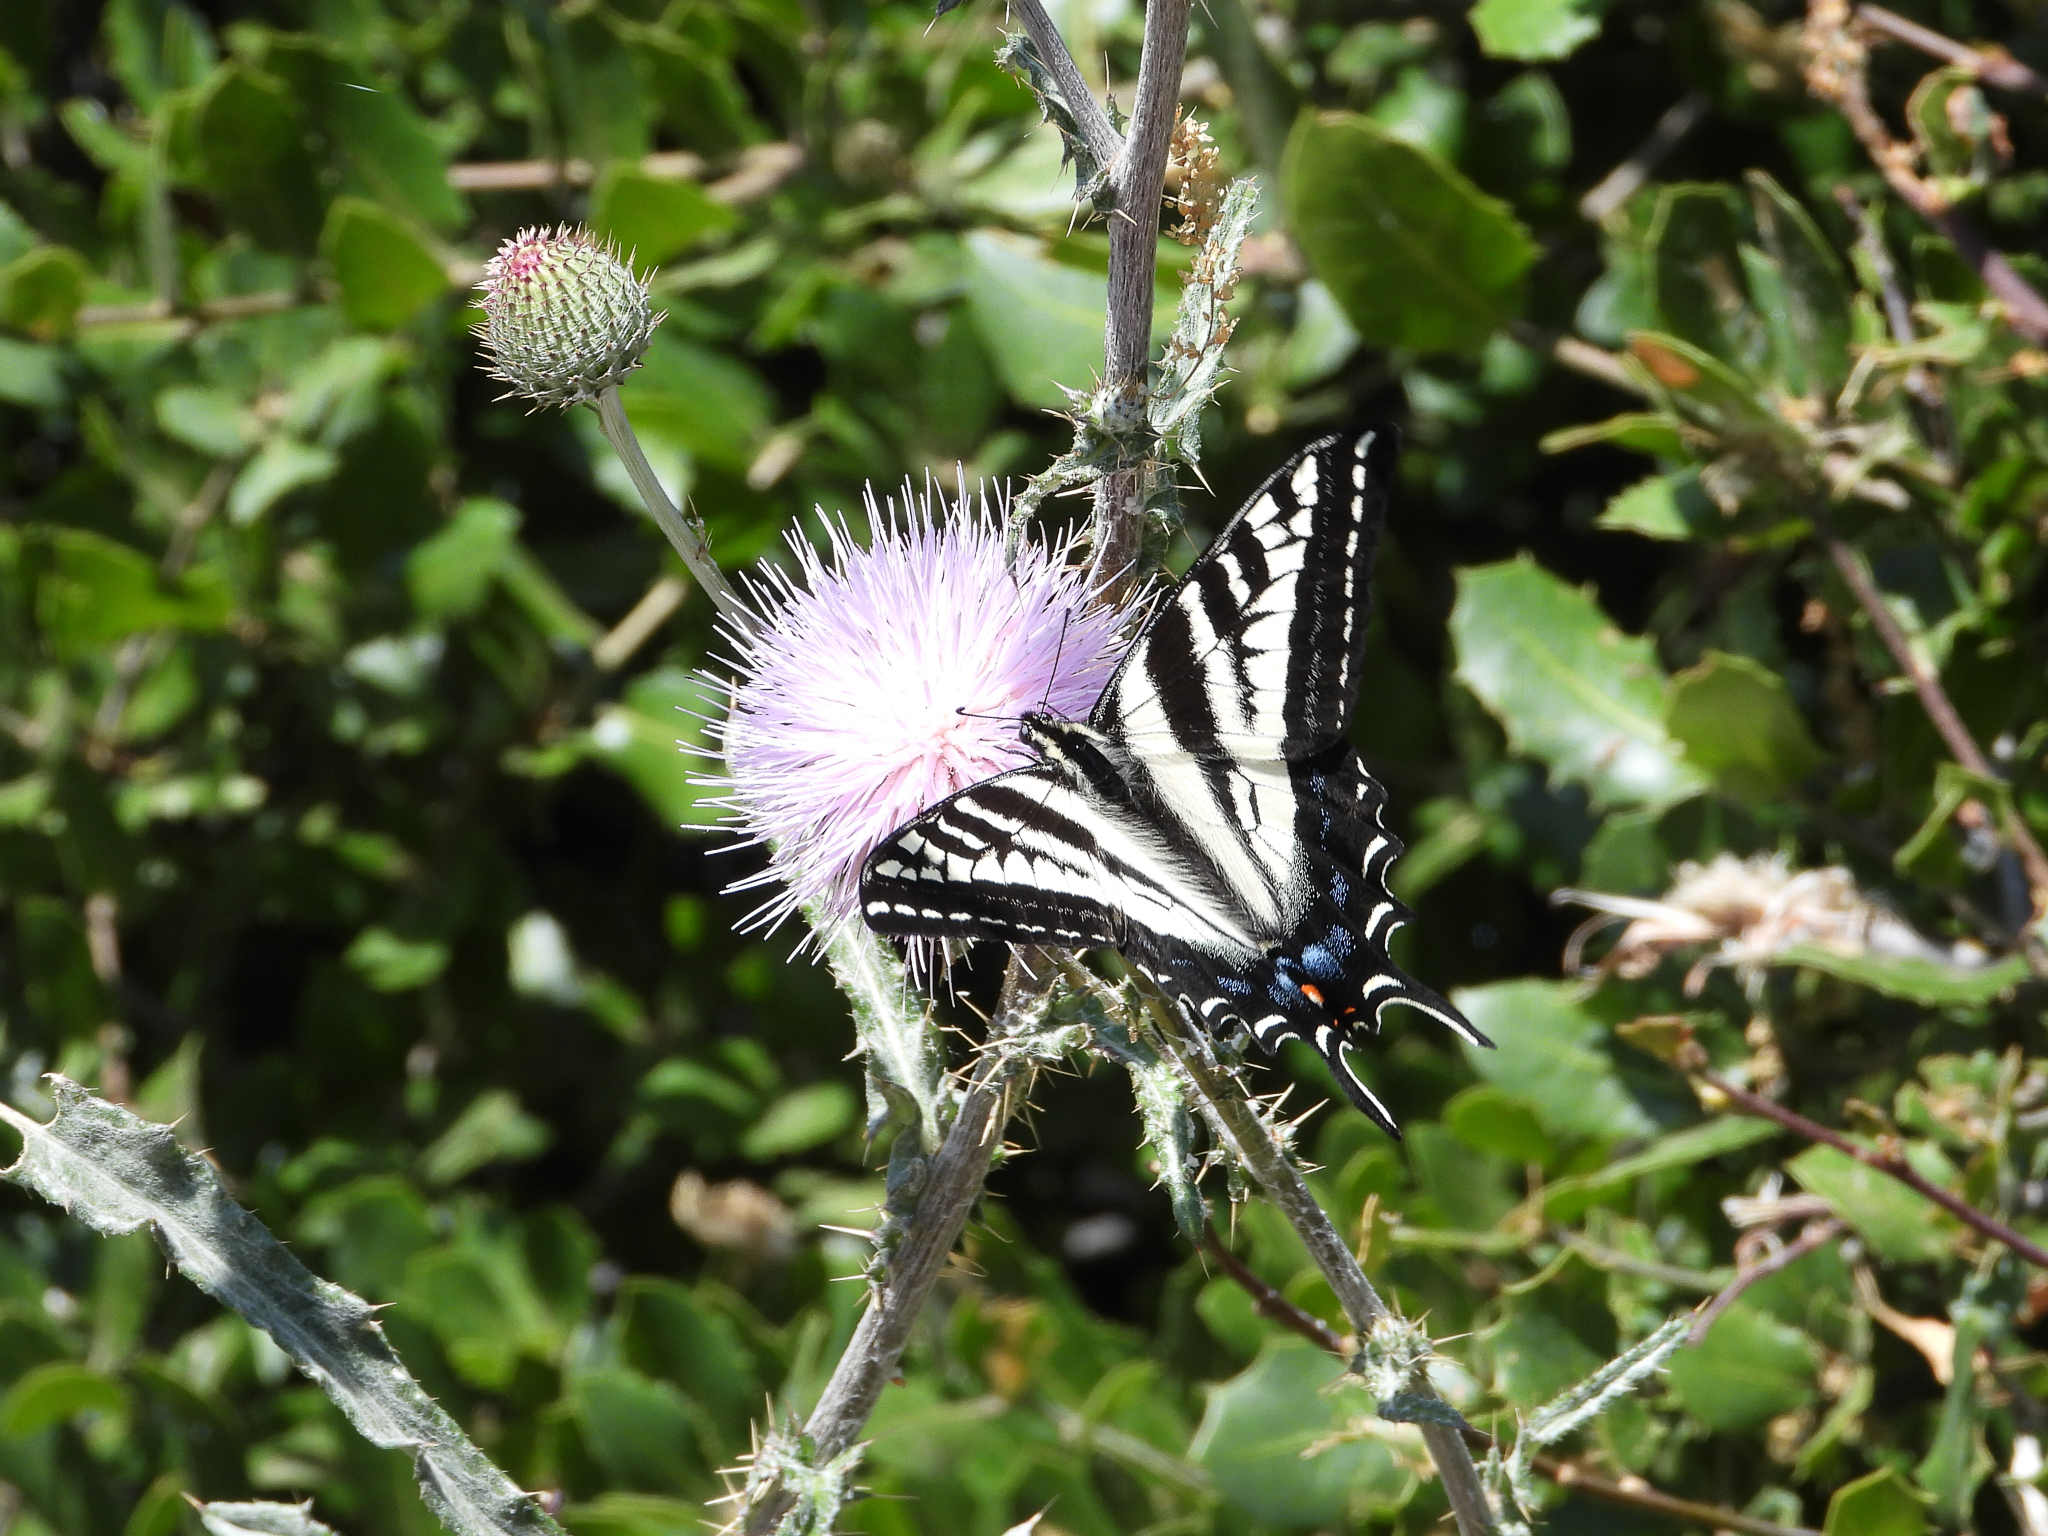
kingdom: Animalia
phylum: Arthropoda
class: Insecta
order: Lepidoptera
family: Papilionidae
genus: Papilio
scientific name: Papilio eurymedon
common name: Pale tiger swallowtail
